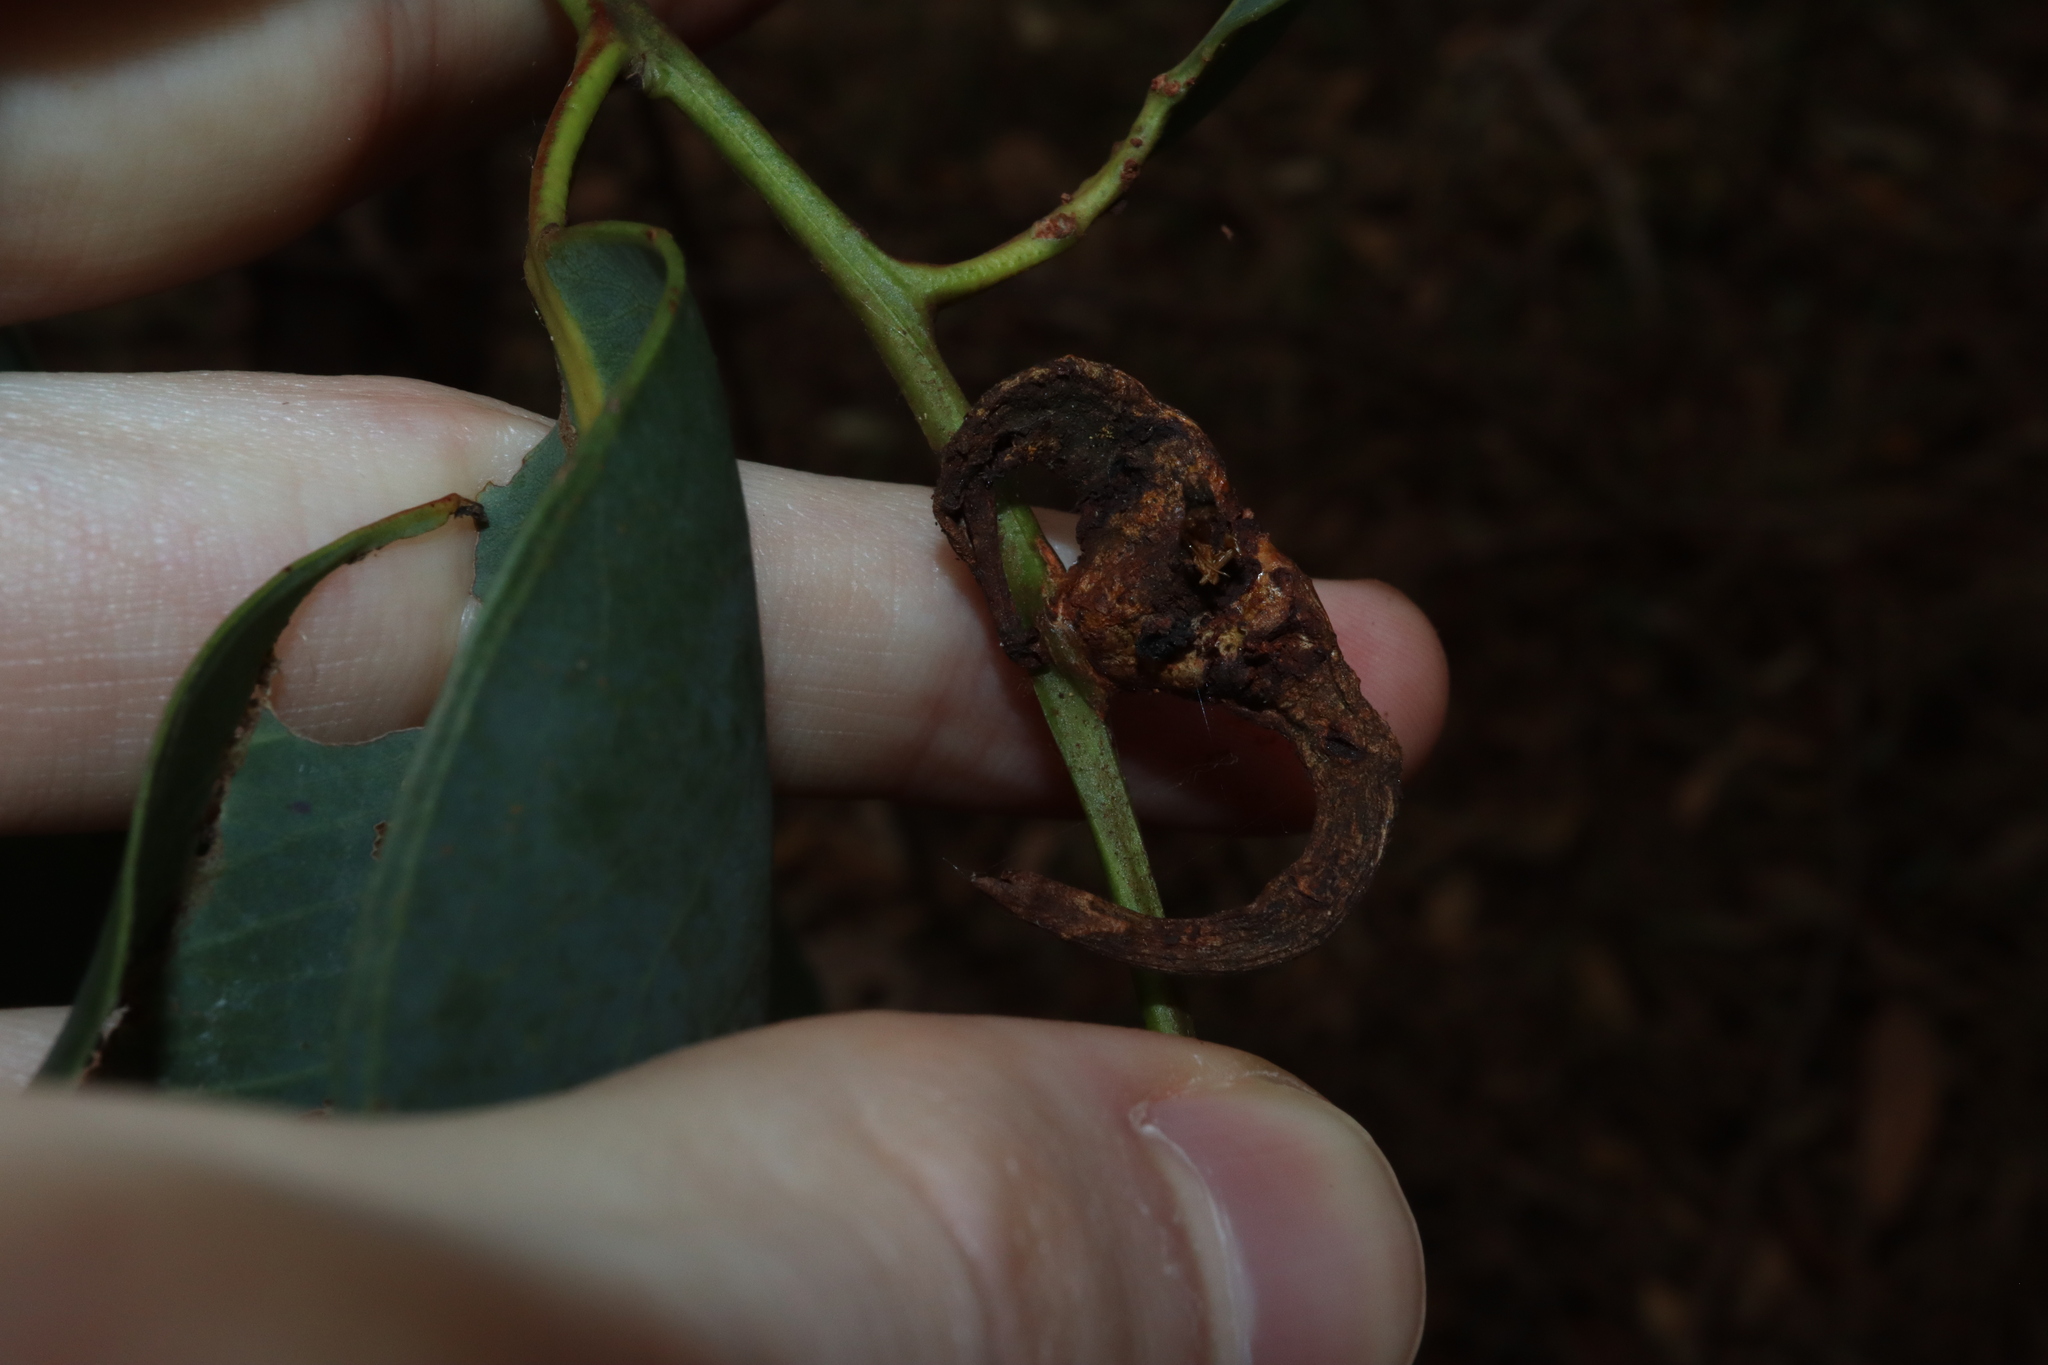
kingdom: Animalia
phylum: Arthropoda
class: Insecta
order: Hemiptera
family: Eriococcidae
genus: Apiomorpha
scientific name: Apiomorpha munita
